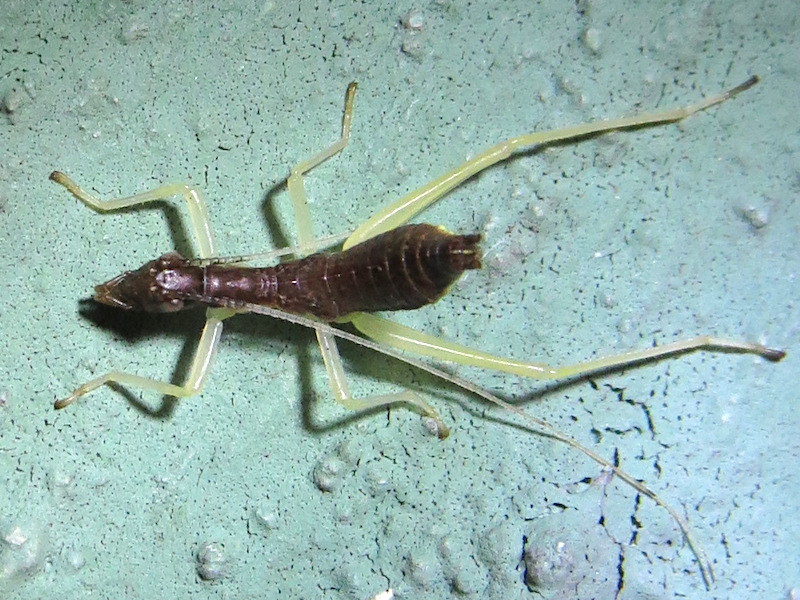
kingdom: Animalia
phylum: Arthropoda
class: Insecta
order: Orthoptera
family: Gryllidae
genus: Neoxabea
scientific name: Neoxabea bipunctata
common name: Two-spotted tree cricket
